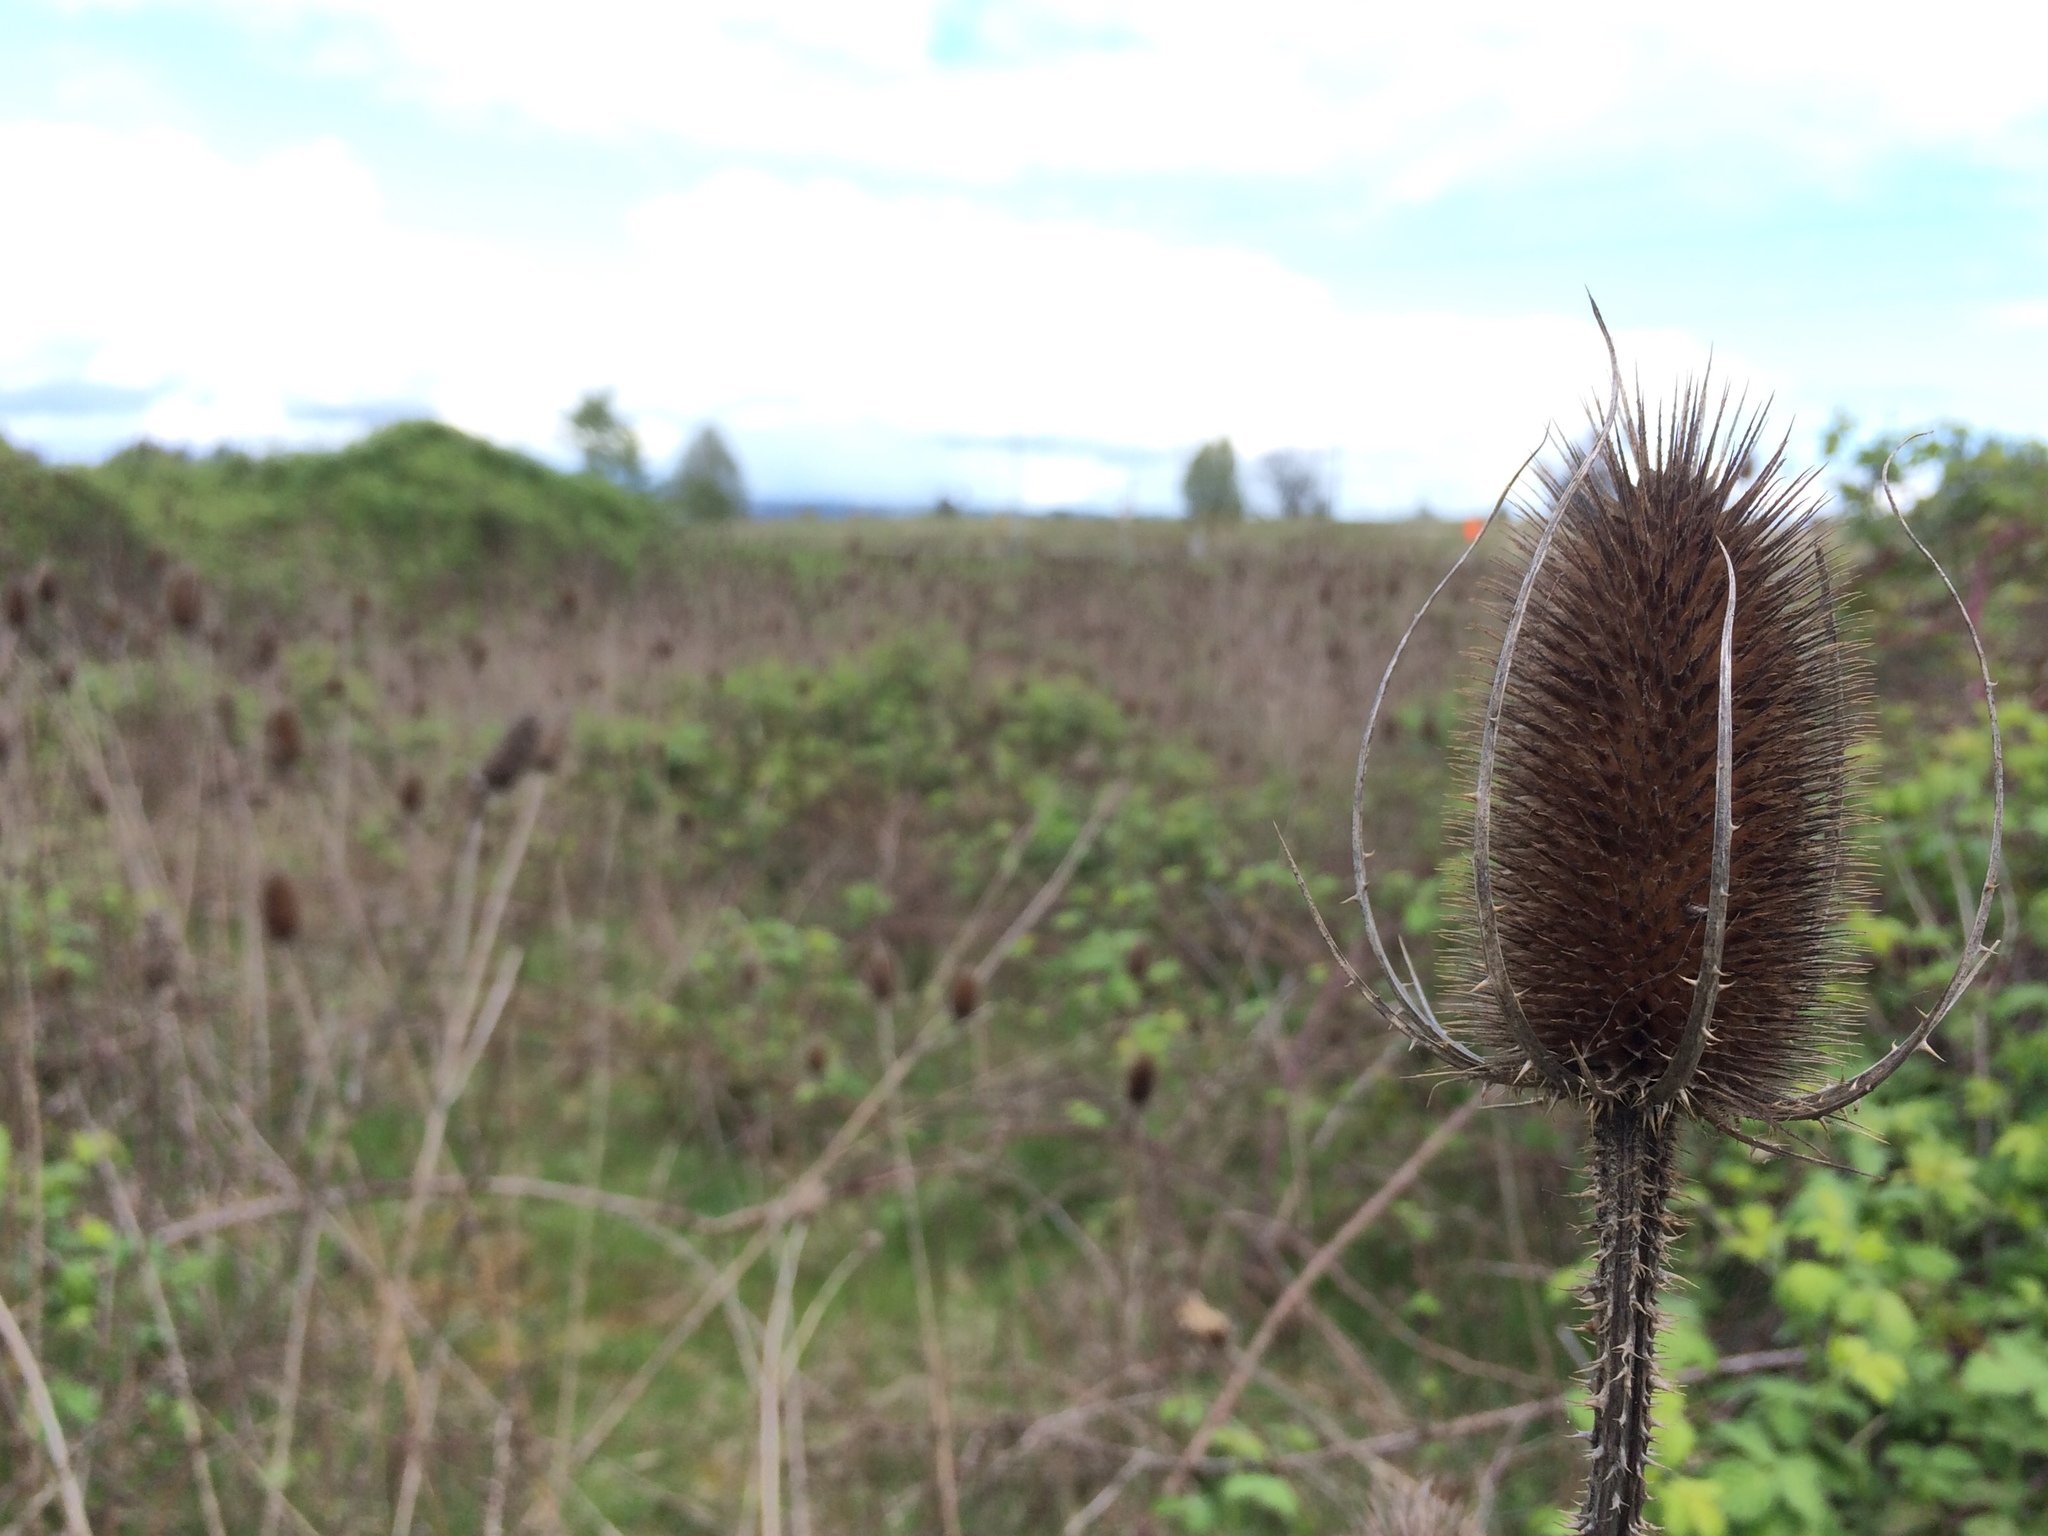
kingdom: Plantae
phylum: Tracheophyta
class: Magnoliopsida
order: Dipsacales
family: Caprifoliaceae
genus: Dipsacus
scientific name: Dipsacus fullonum
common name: Teasel
